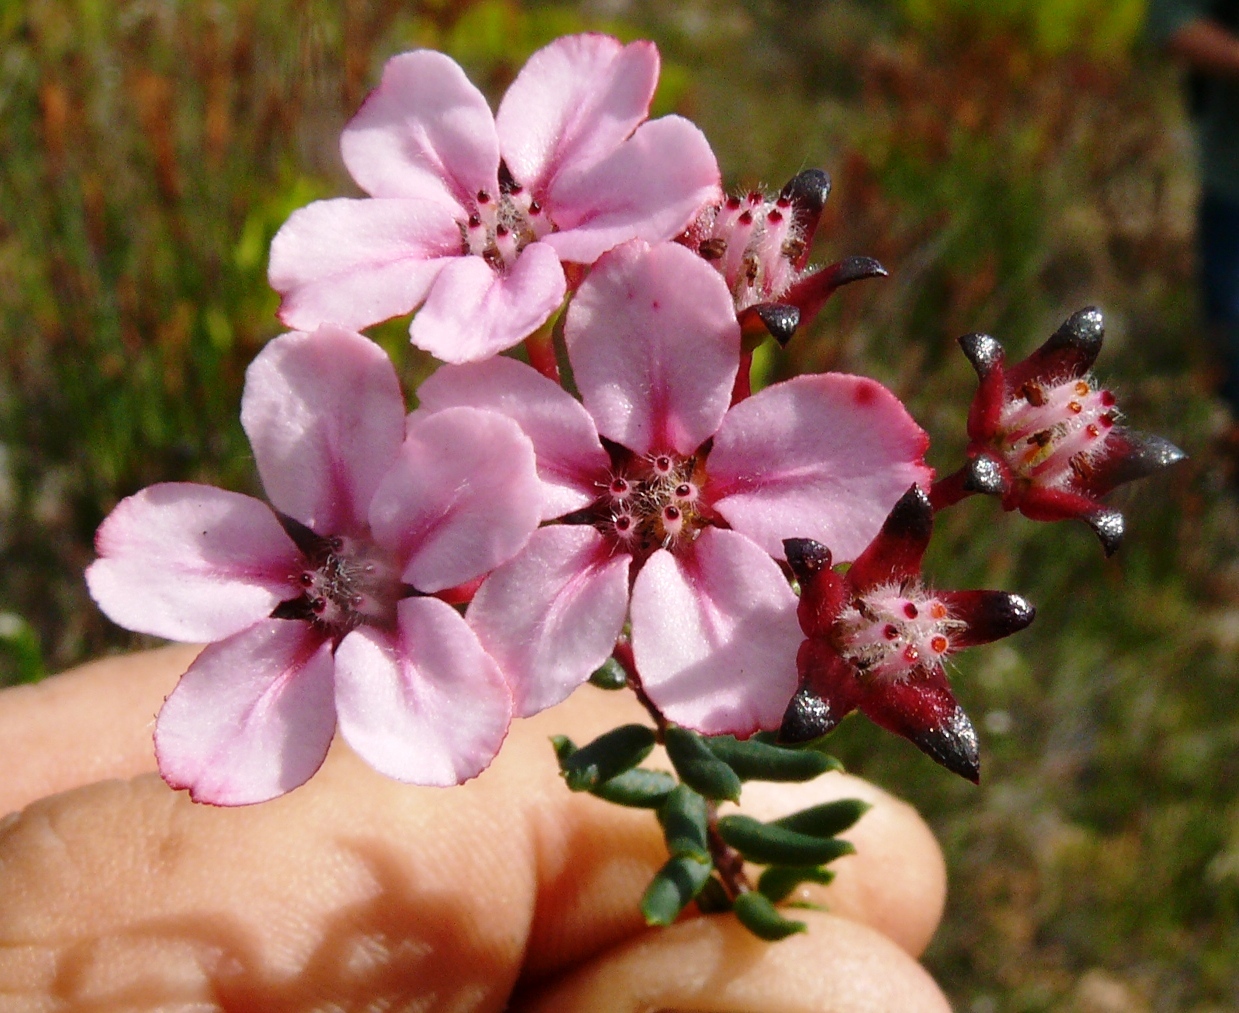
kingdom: Plantae
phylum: Tracheophyta
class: Magnoliopsida
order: Sapindales
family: Rutaceae
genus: Adenandra
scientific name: Adenandra mundiifolia
